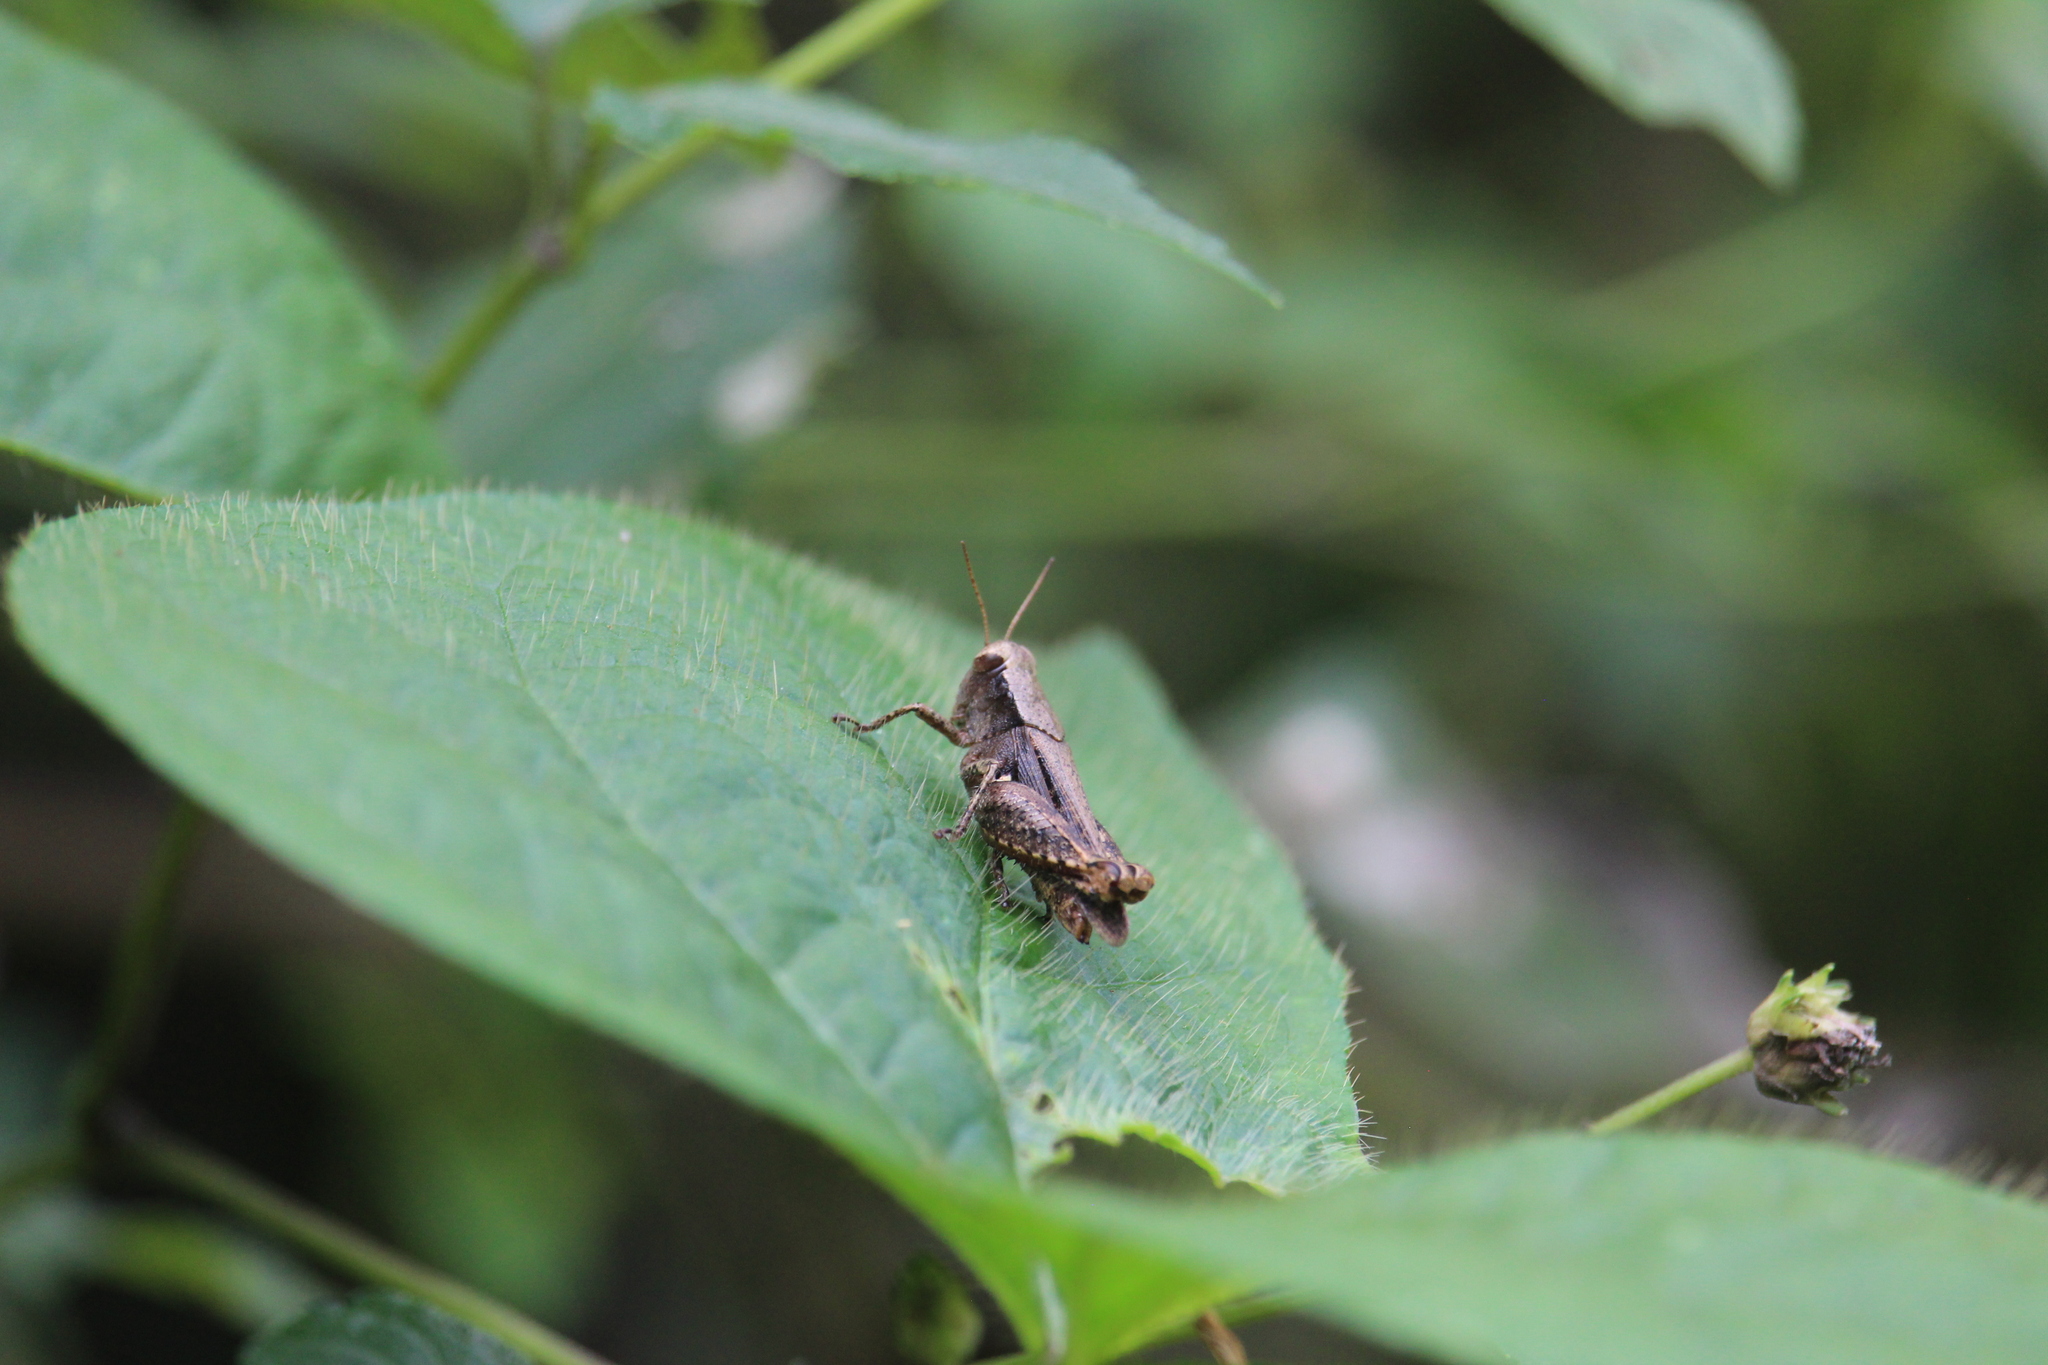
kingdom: Animalia
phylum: Arthropoda
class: Insecta
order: Orthoptera
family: Acrididae
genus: Aidemona
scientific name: Aidemona azteca
